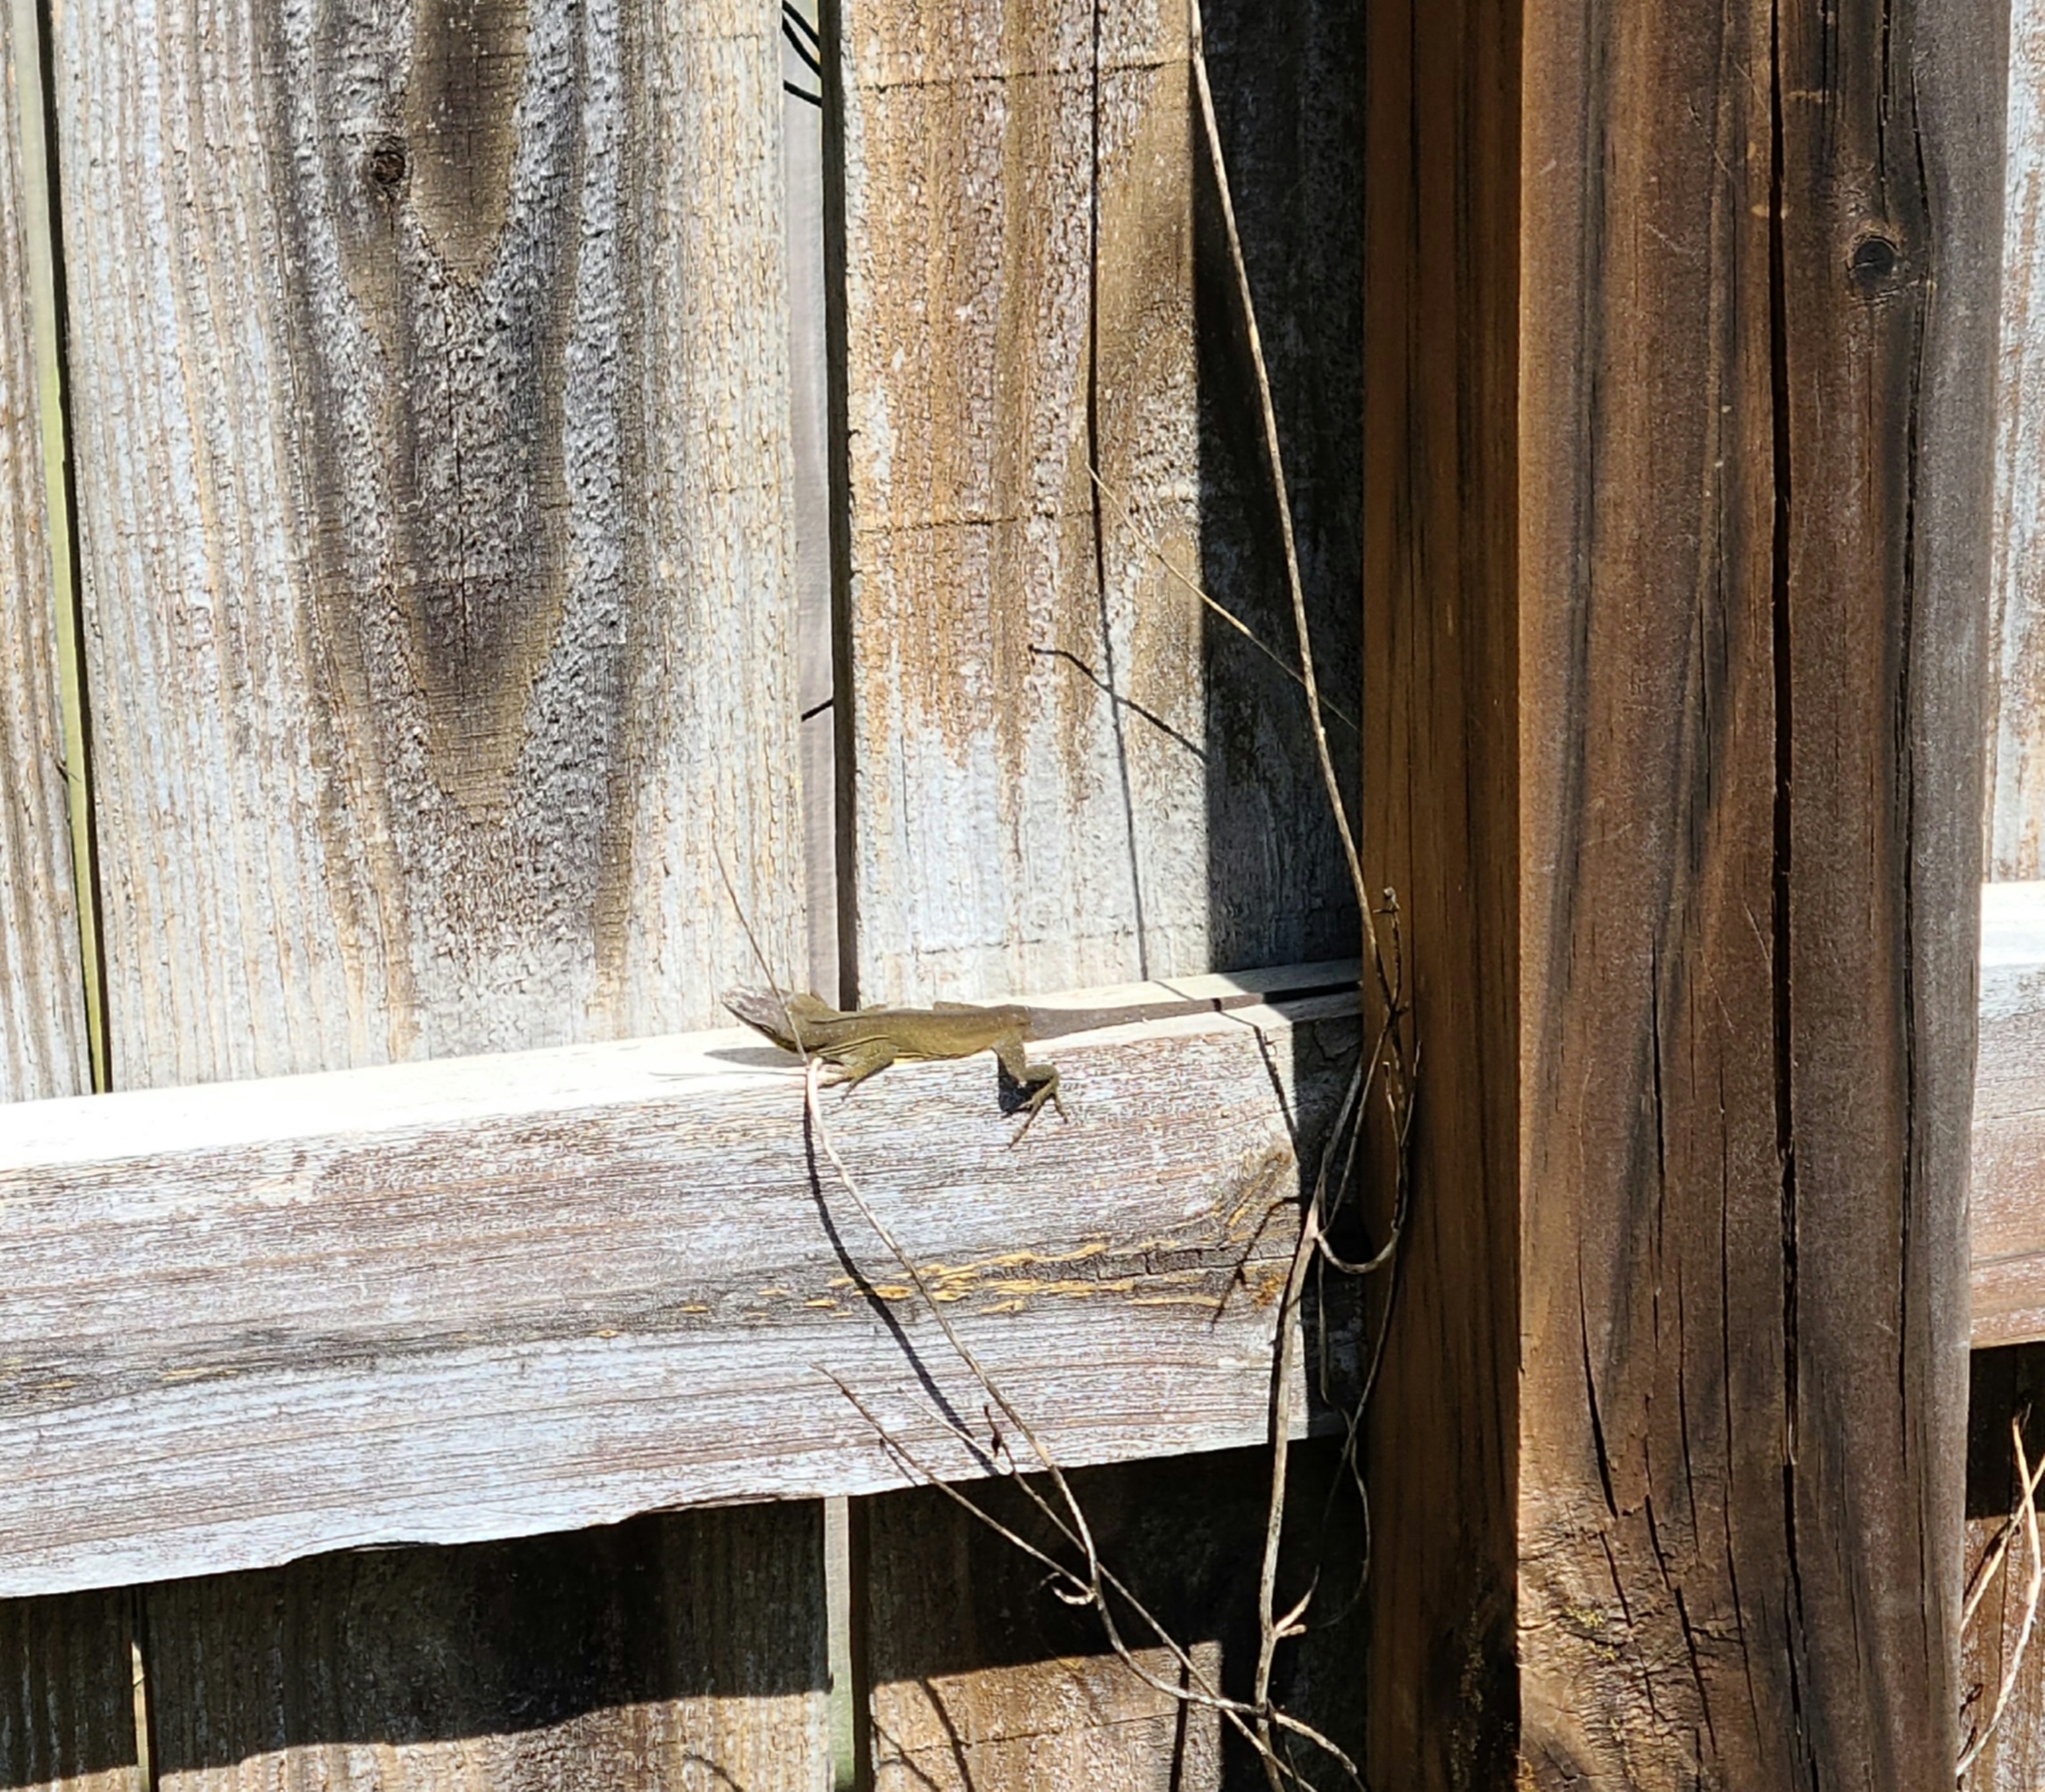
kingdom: Animalia
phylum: Chordata
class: Squamata
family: Dactyloidae
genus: Anolis
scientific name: Anolis carolinensis
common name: Green anole
